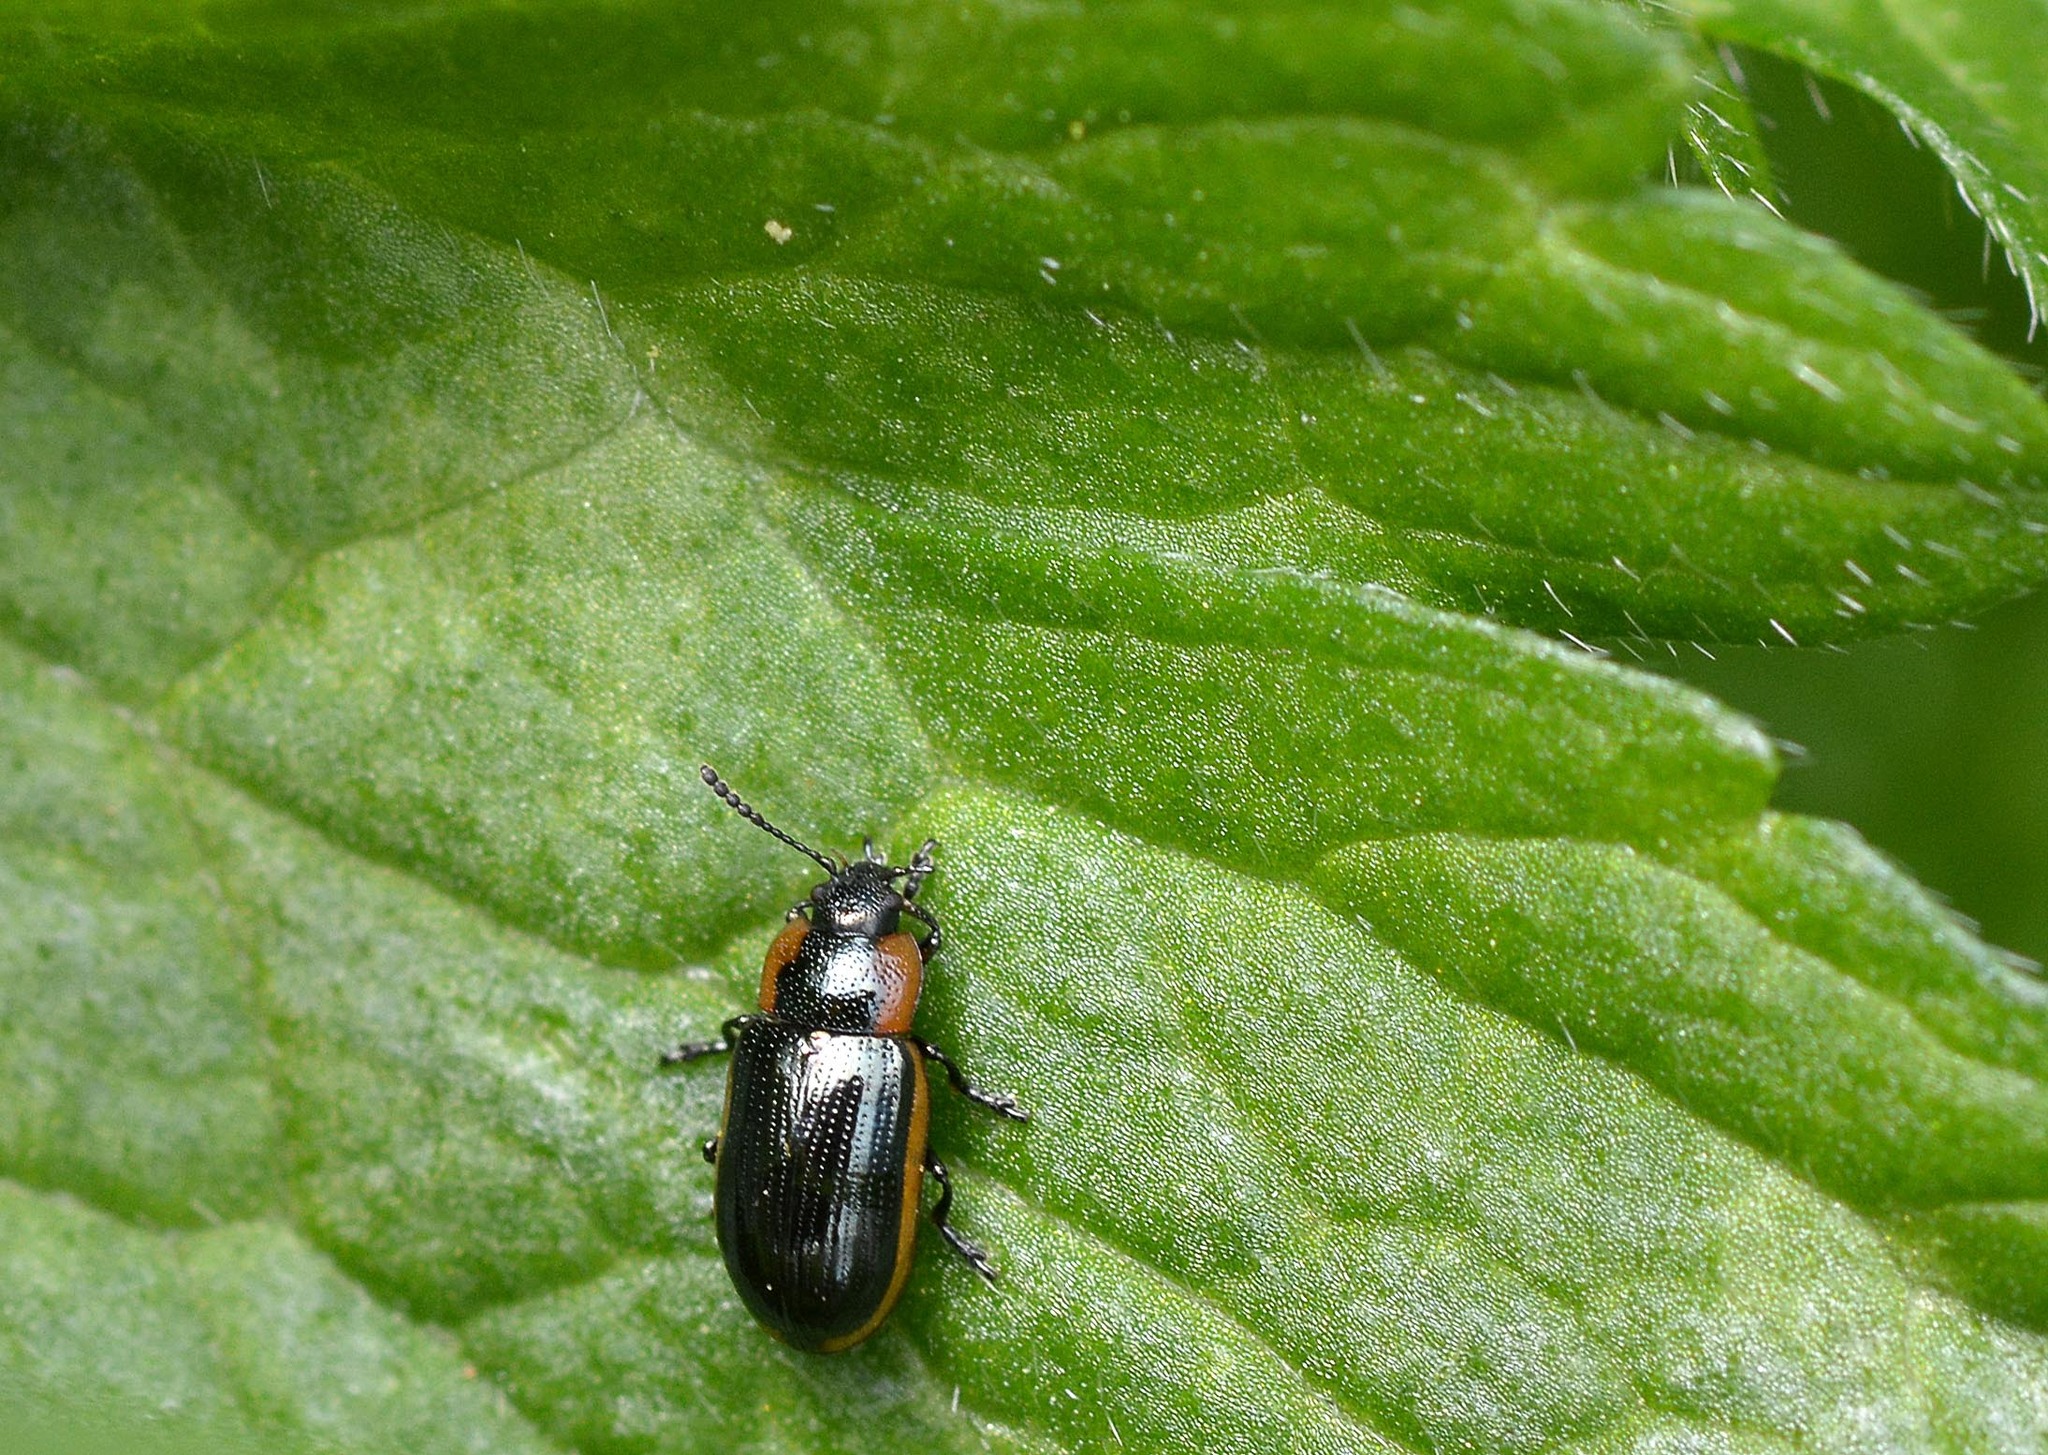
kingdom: Animalia
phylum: Arthropoda
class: Insecta
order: Coleoptera
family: Chrysomelidae
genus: Prasocuris
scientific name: Prasocuris marginella
